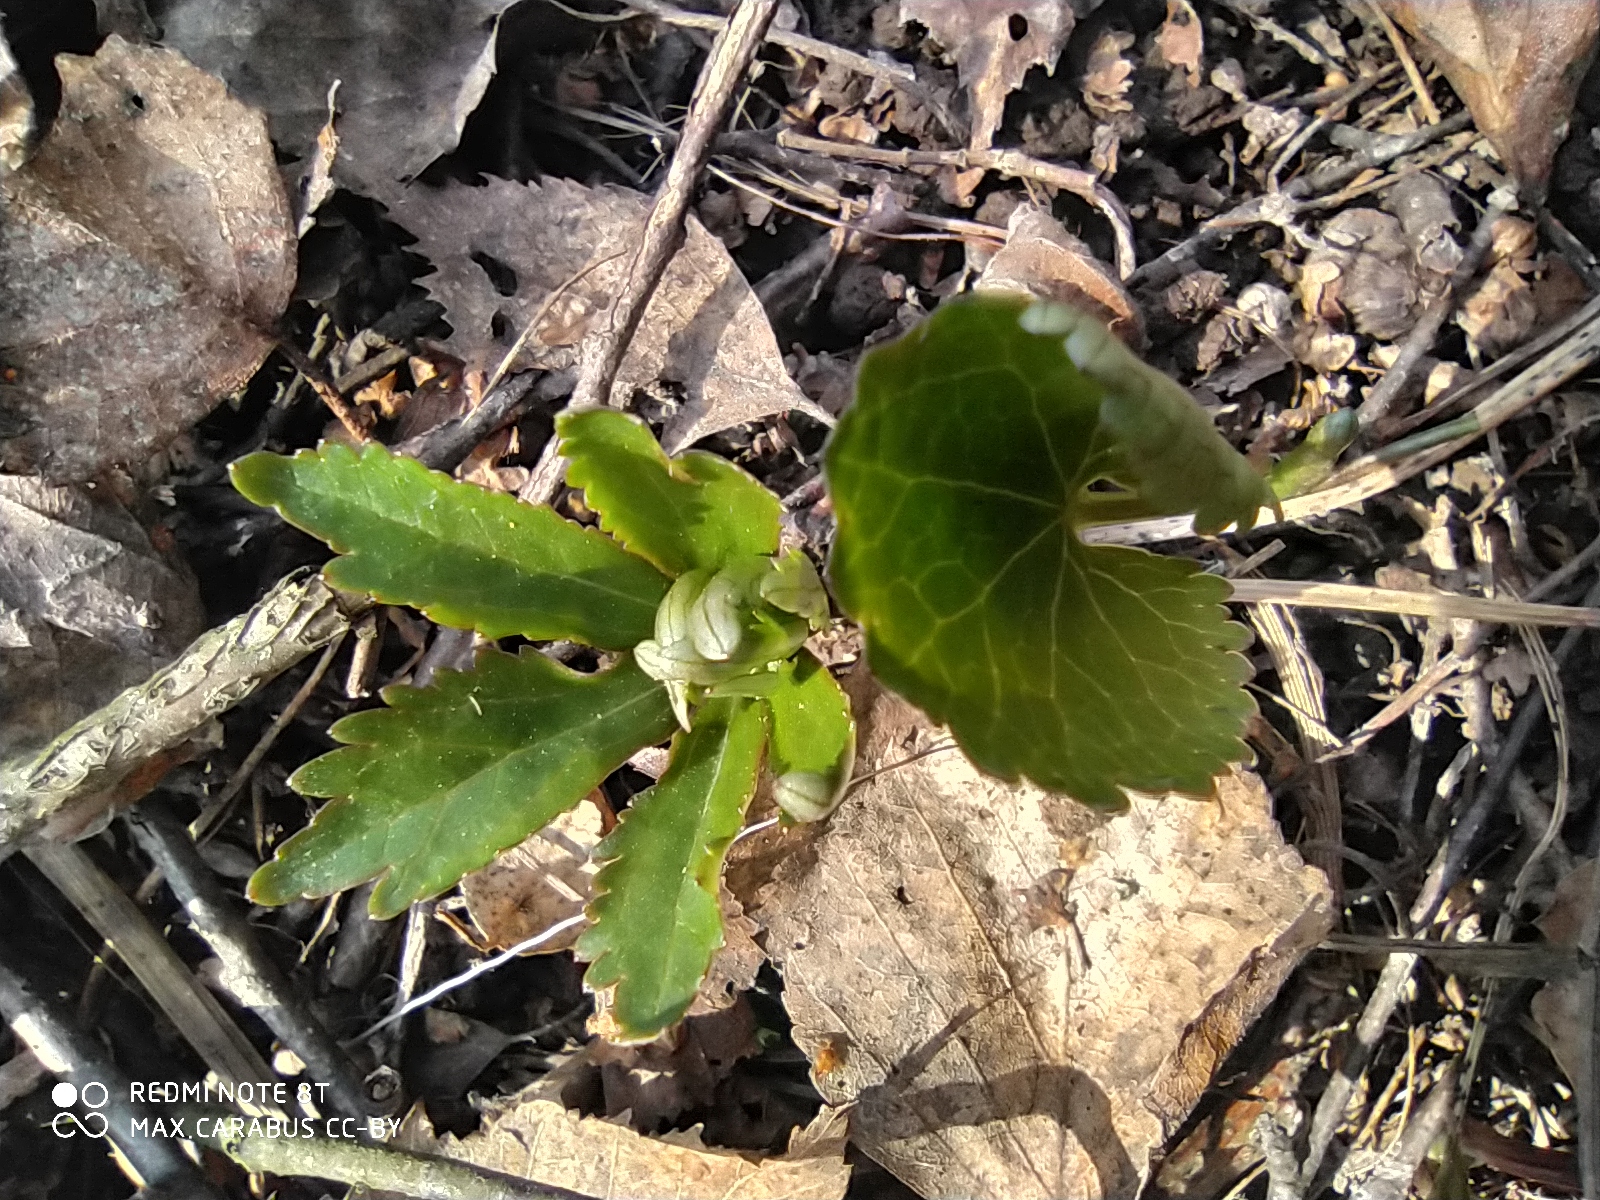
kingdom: Plantae
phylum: Tracheophyta
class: Magnoliopsida
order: Ranunculales
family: Ranunculaceae
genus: Ranunculus
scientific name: Ranunculus cassubicus
